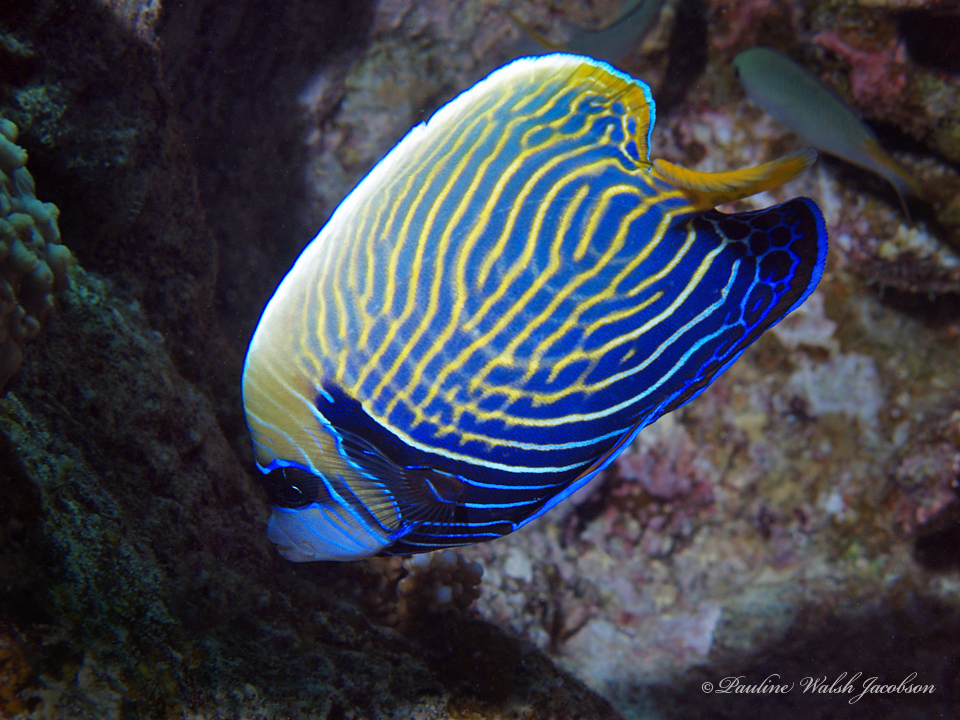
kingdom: Animalia
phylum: Chordata
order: Perciformes
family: Pomacanthidae
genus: Pomacanthus
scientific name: Pomacanthus imperator
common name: Emperor angelfish
